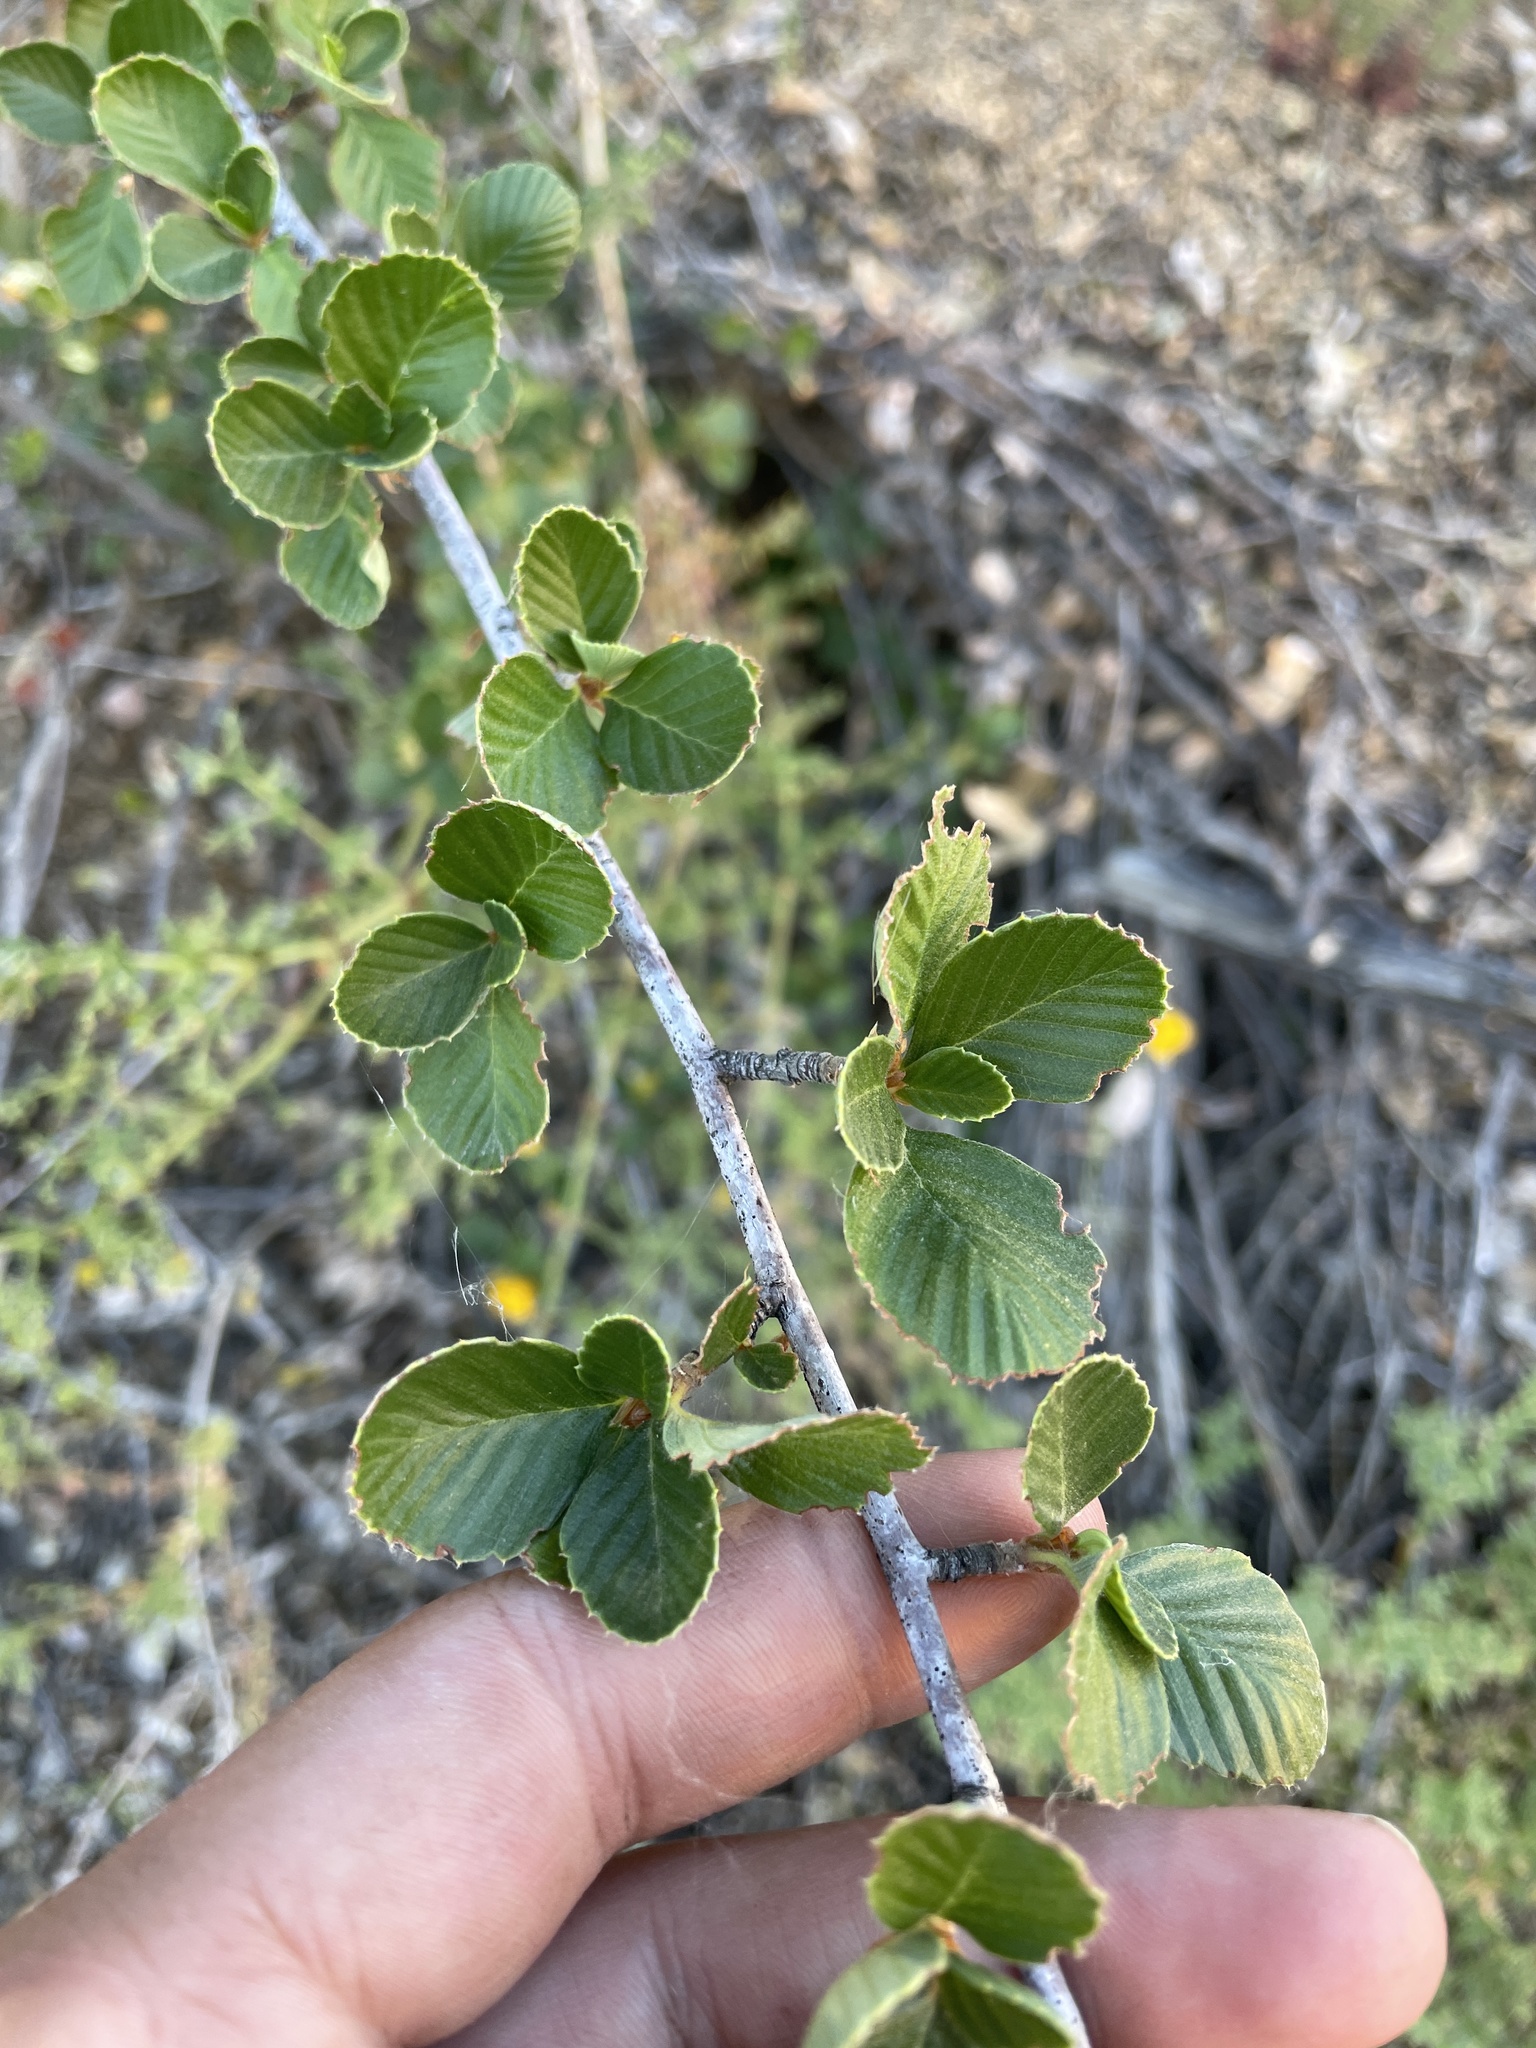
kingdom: Plantae
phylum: Tracheophyta
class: Magnoliopsida
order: Rosales
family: Rosaceae
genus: Cercocarpus
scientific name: Cercocarpus betuloides
